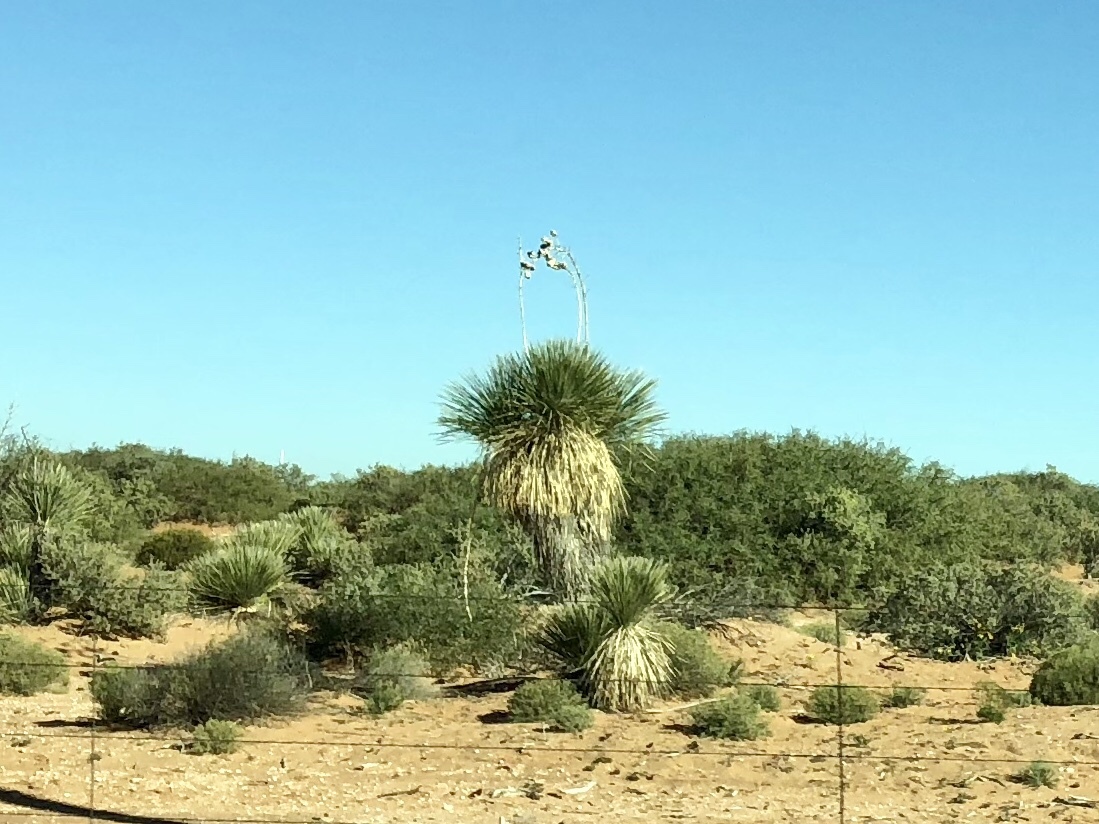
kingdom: Plantae
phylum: Tracheophyta
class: Liliopsida
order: Asparagales
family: Asparagaceae
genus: Yucca
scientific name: Yucca elata
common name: Palmella
